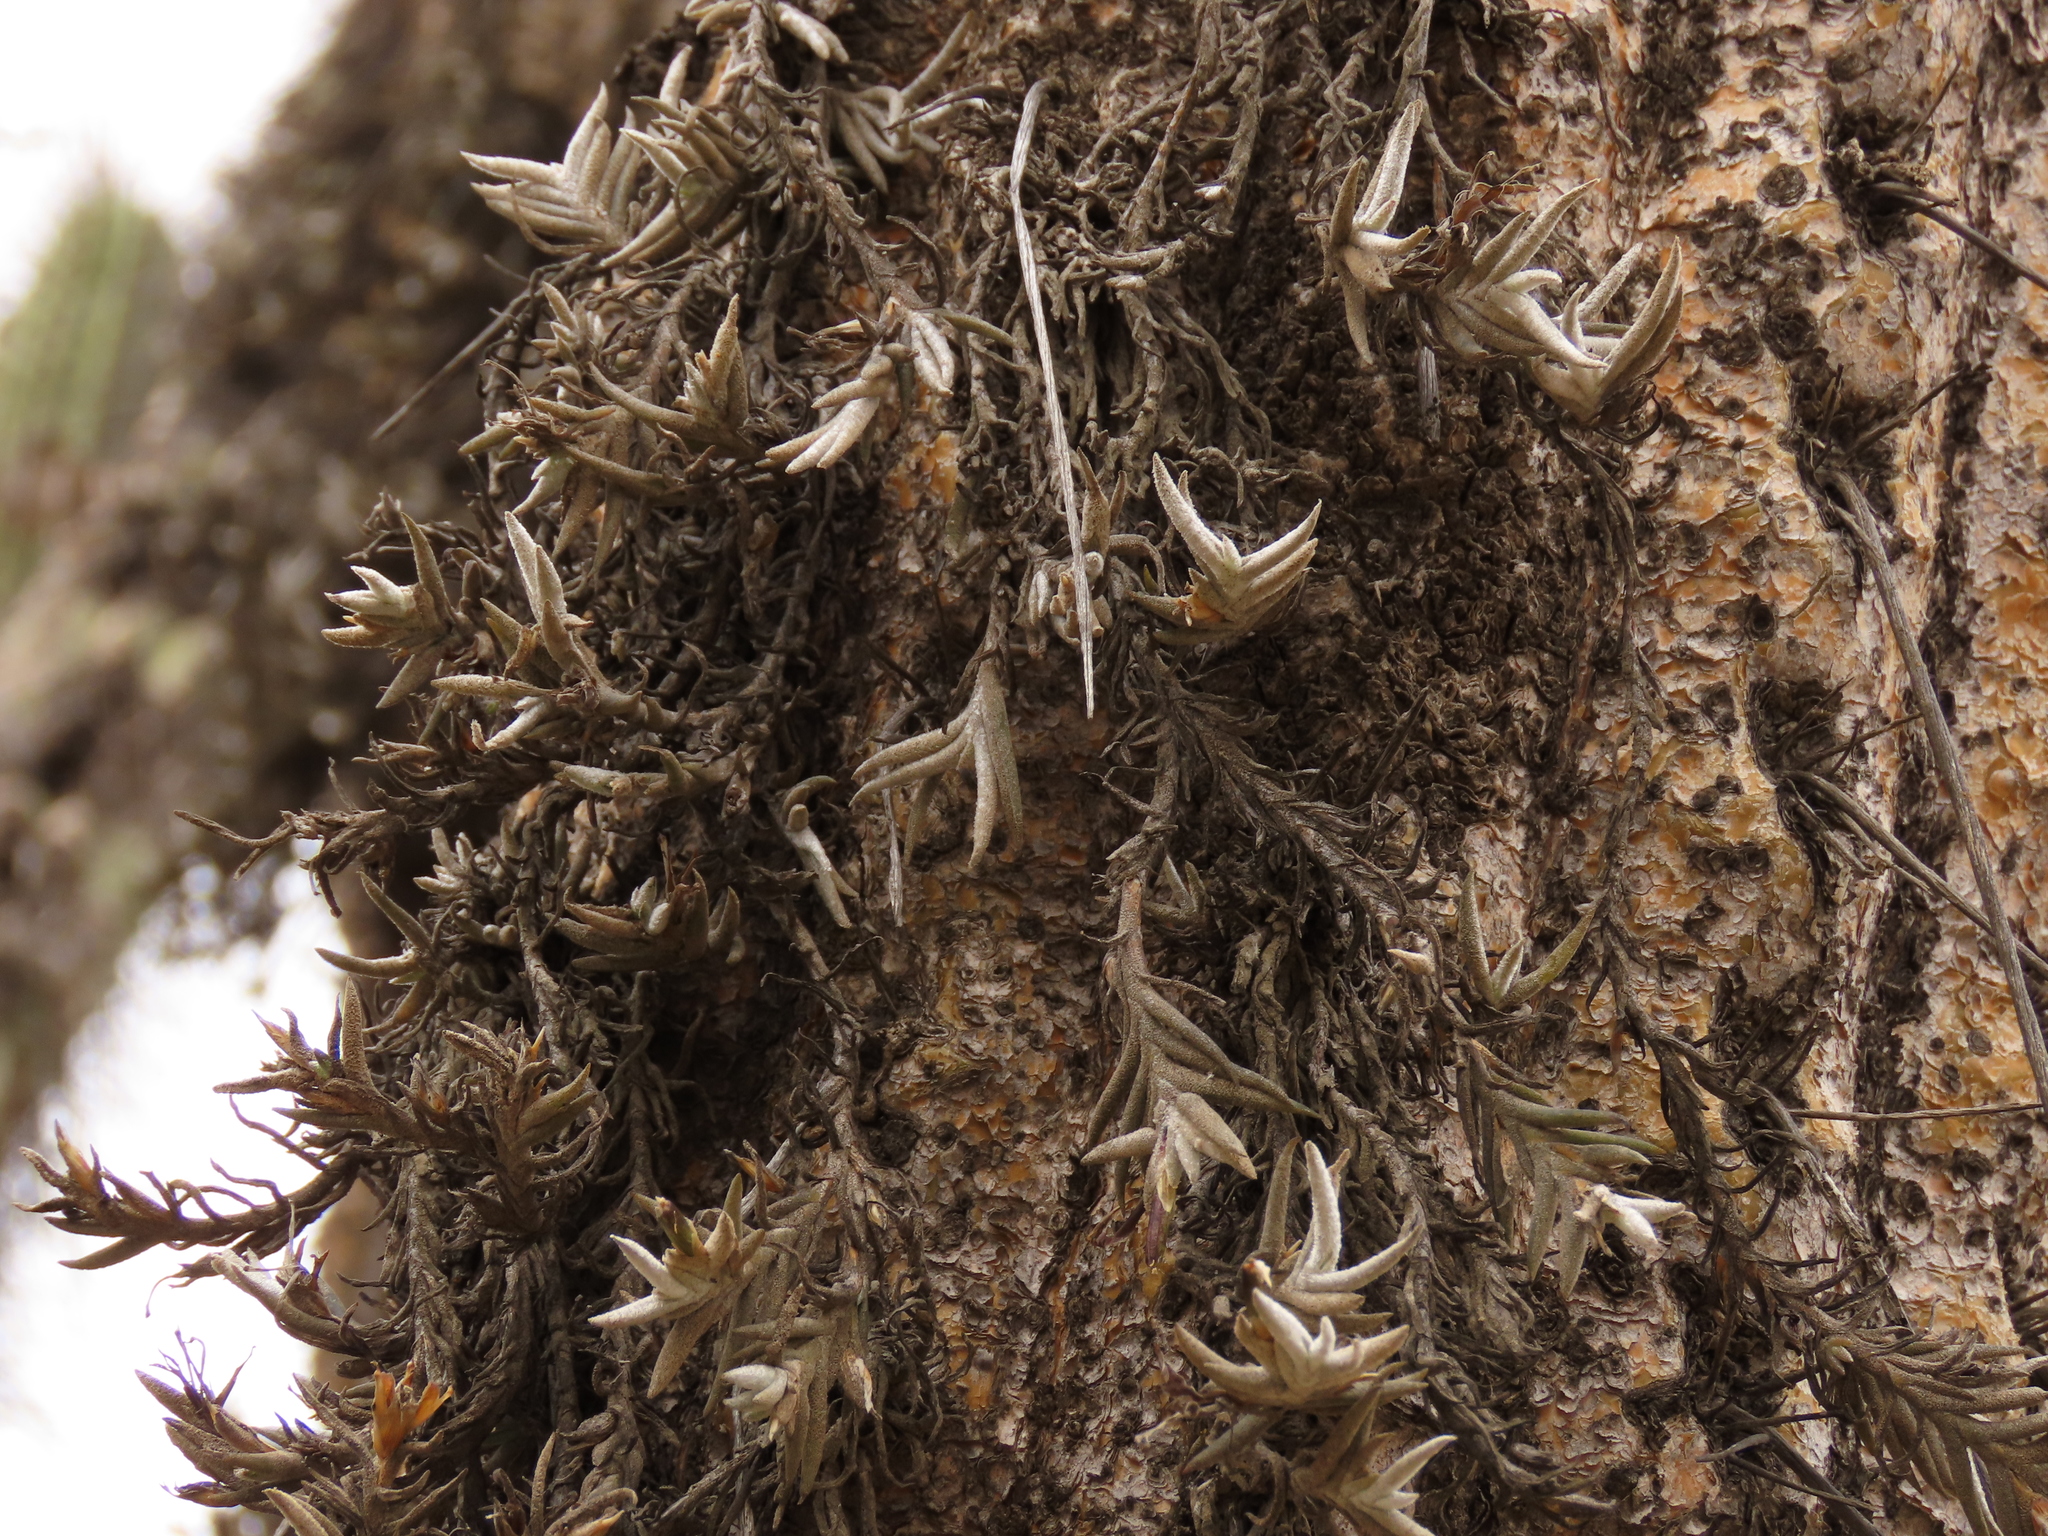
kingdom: Plantae
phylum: Tracheophyta
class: Liliopsida
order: Poales
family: Bromeliaceae
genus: Tillandsia
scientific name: Tillandsia virescens
